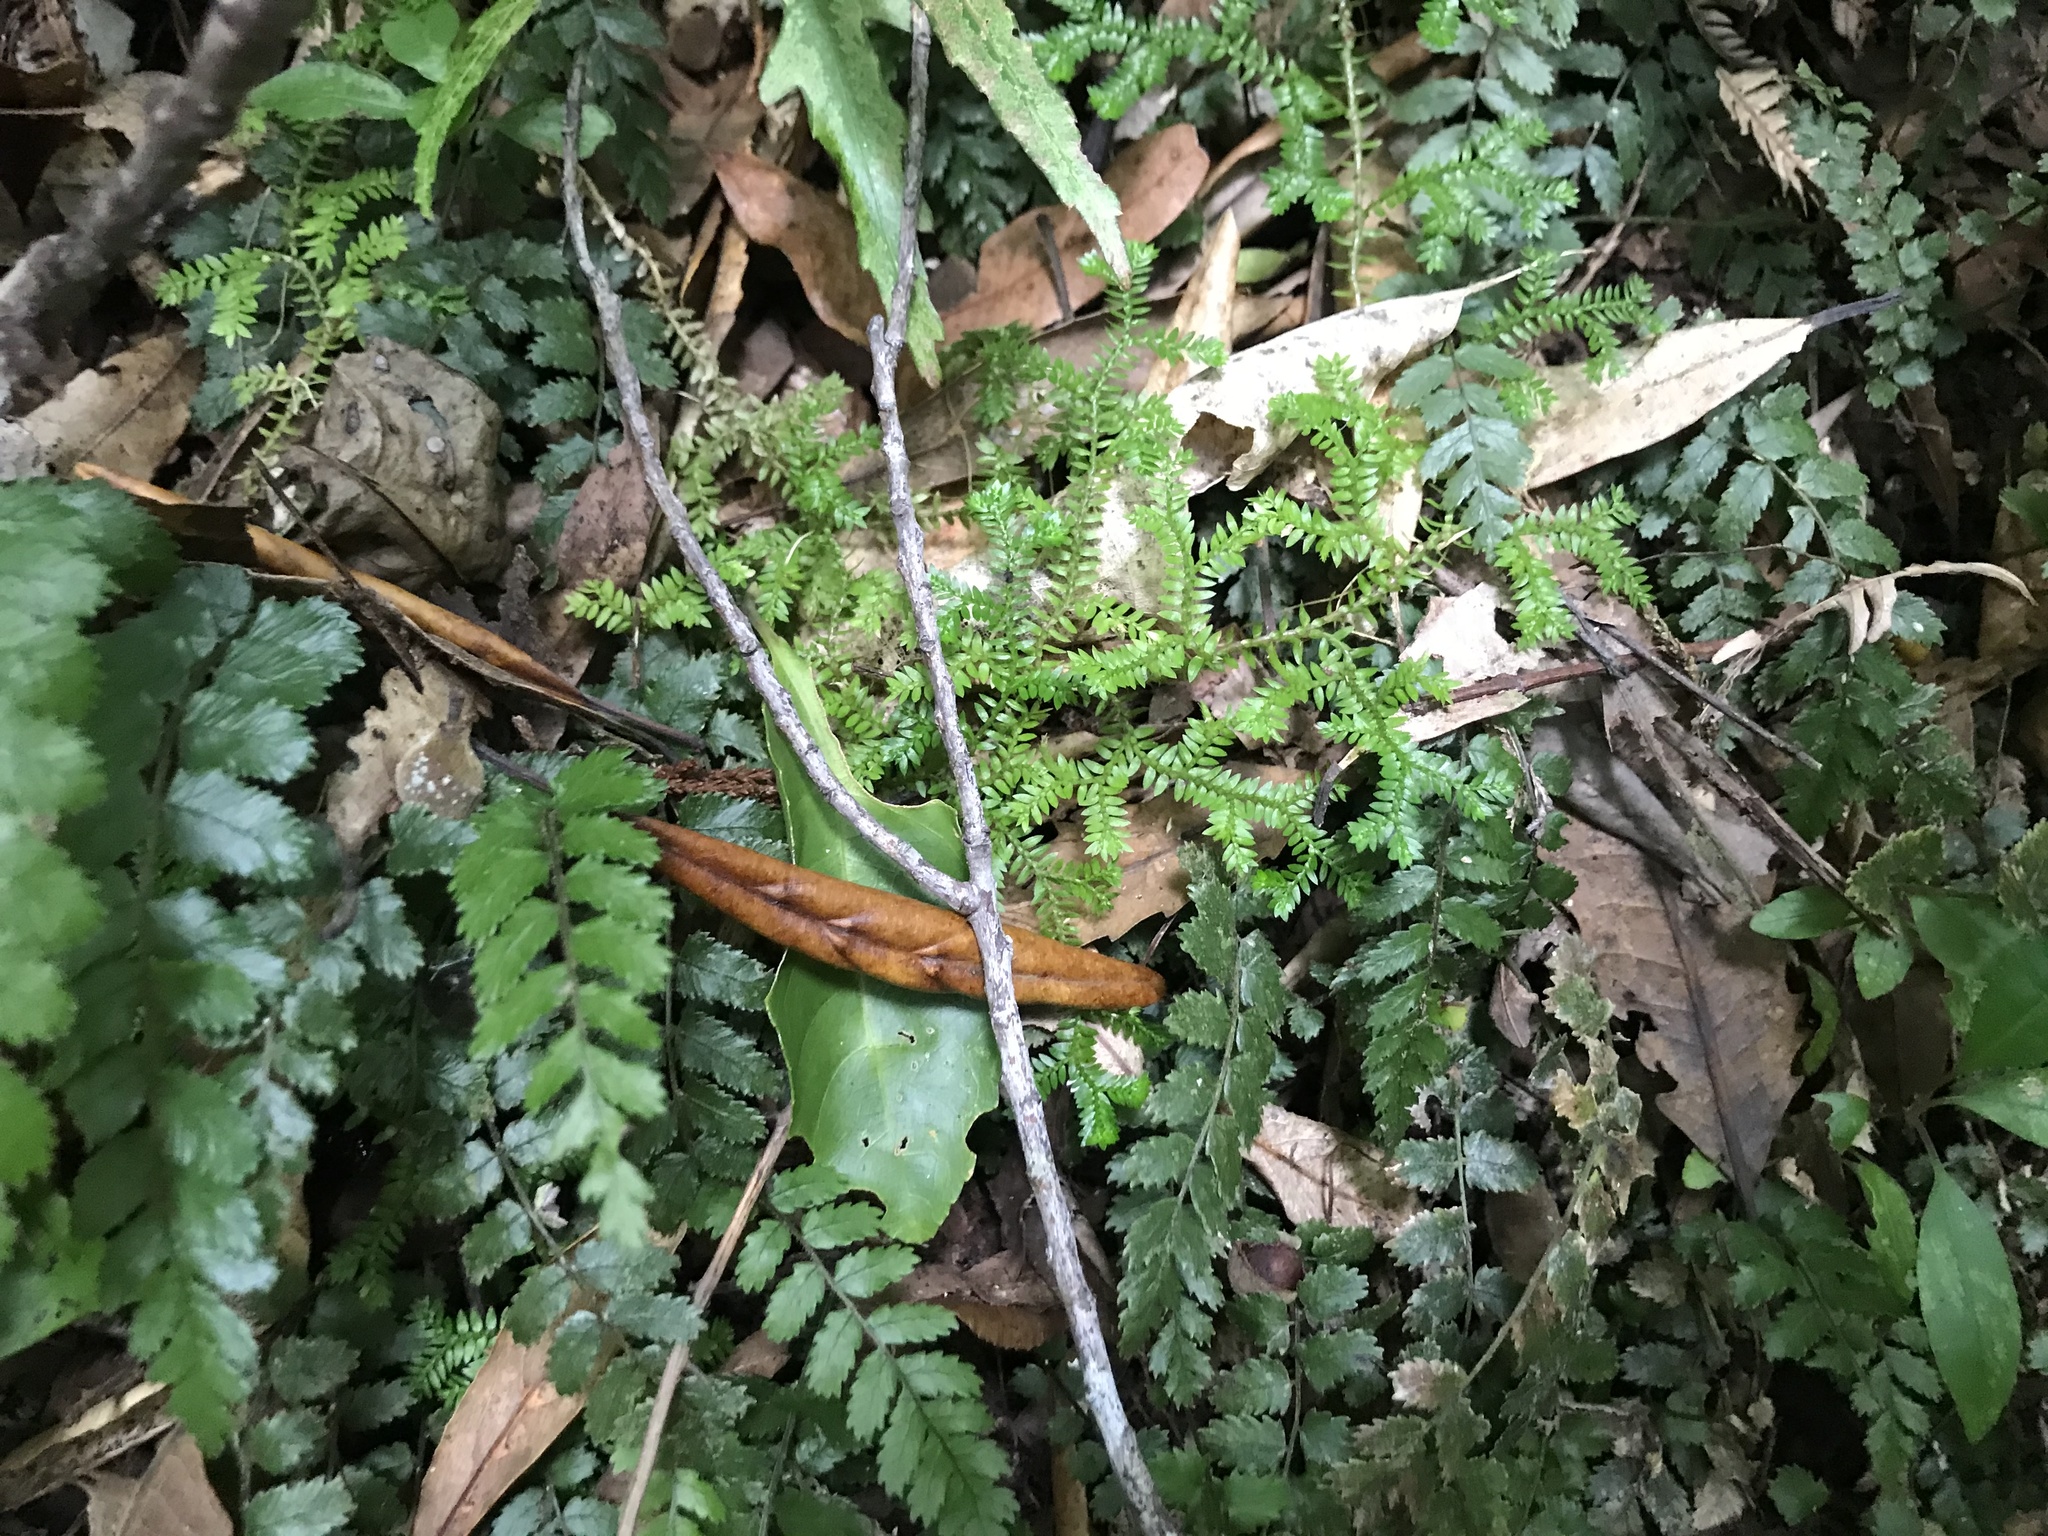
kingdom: Plantae
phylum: Tracheophyta
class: Lycopodiopsida
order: Selaginellales
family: Selaginellaceae
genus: Selaginella
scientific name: Selaginella kraussiana
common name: Krauss' spikemoss
